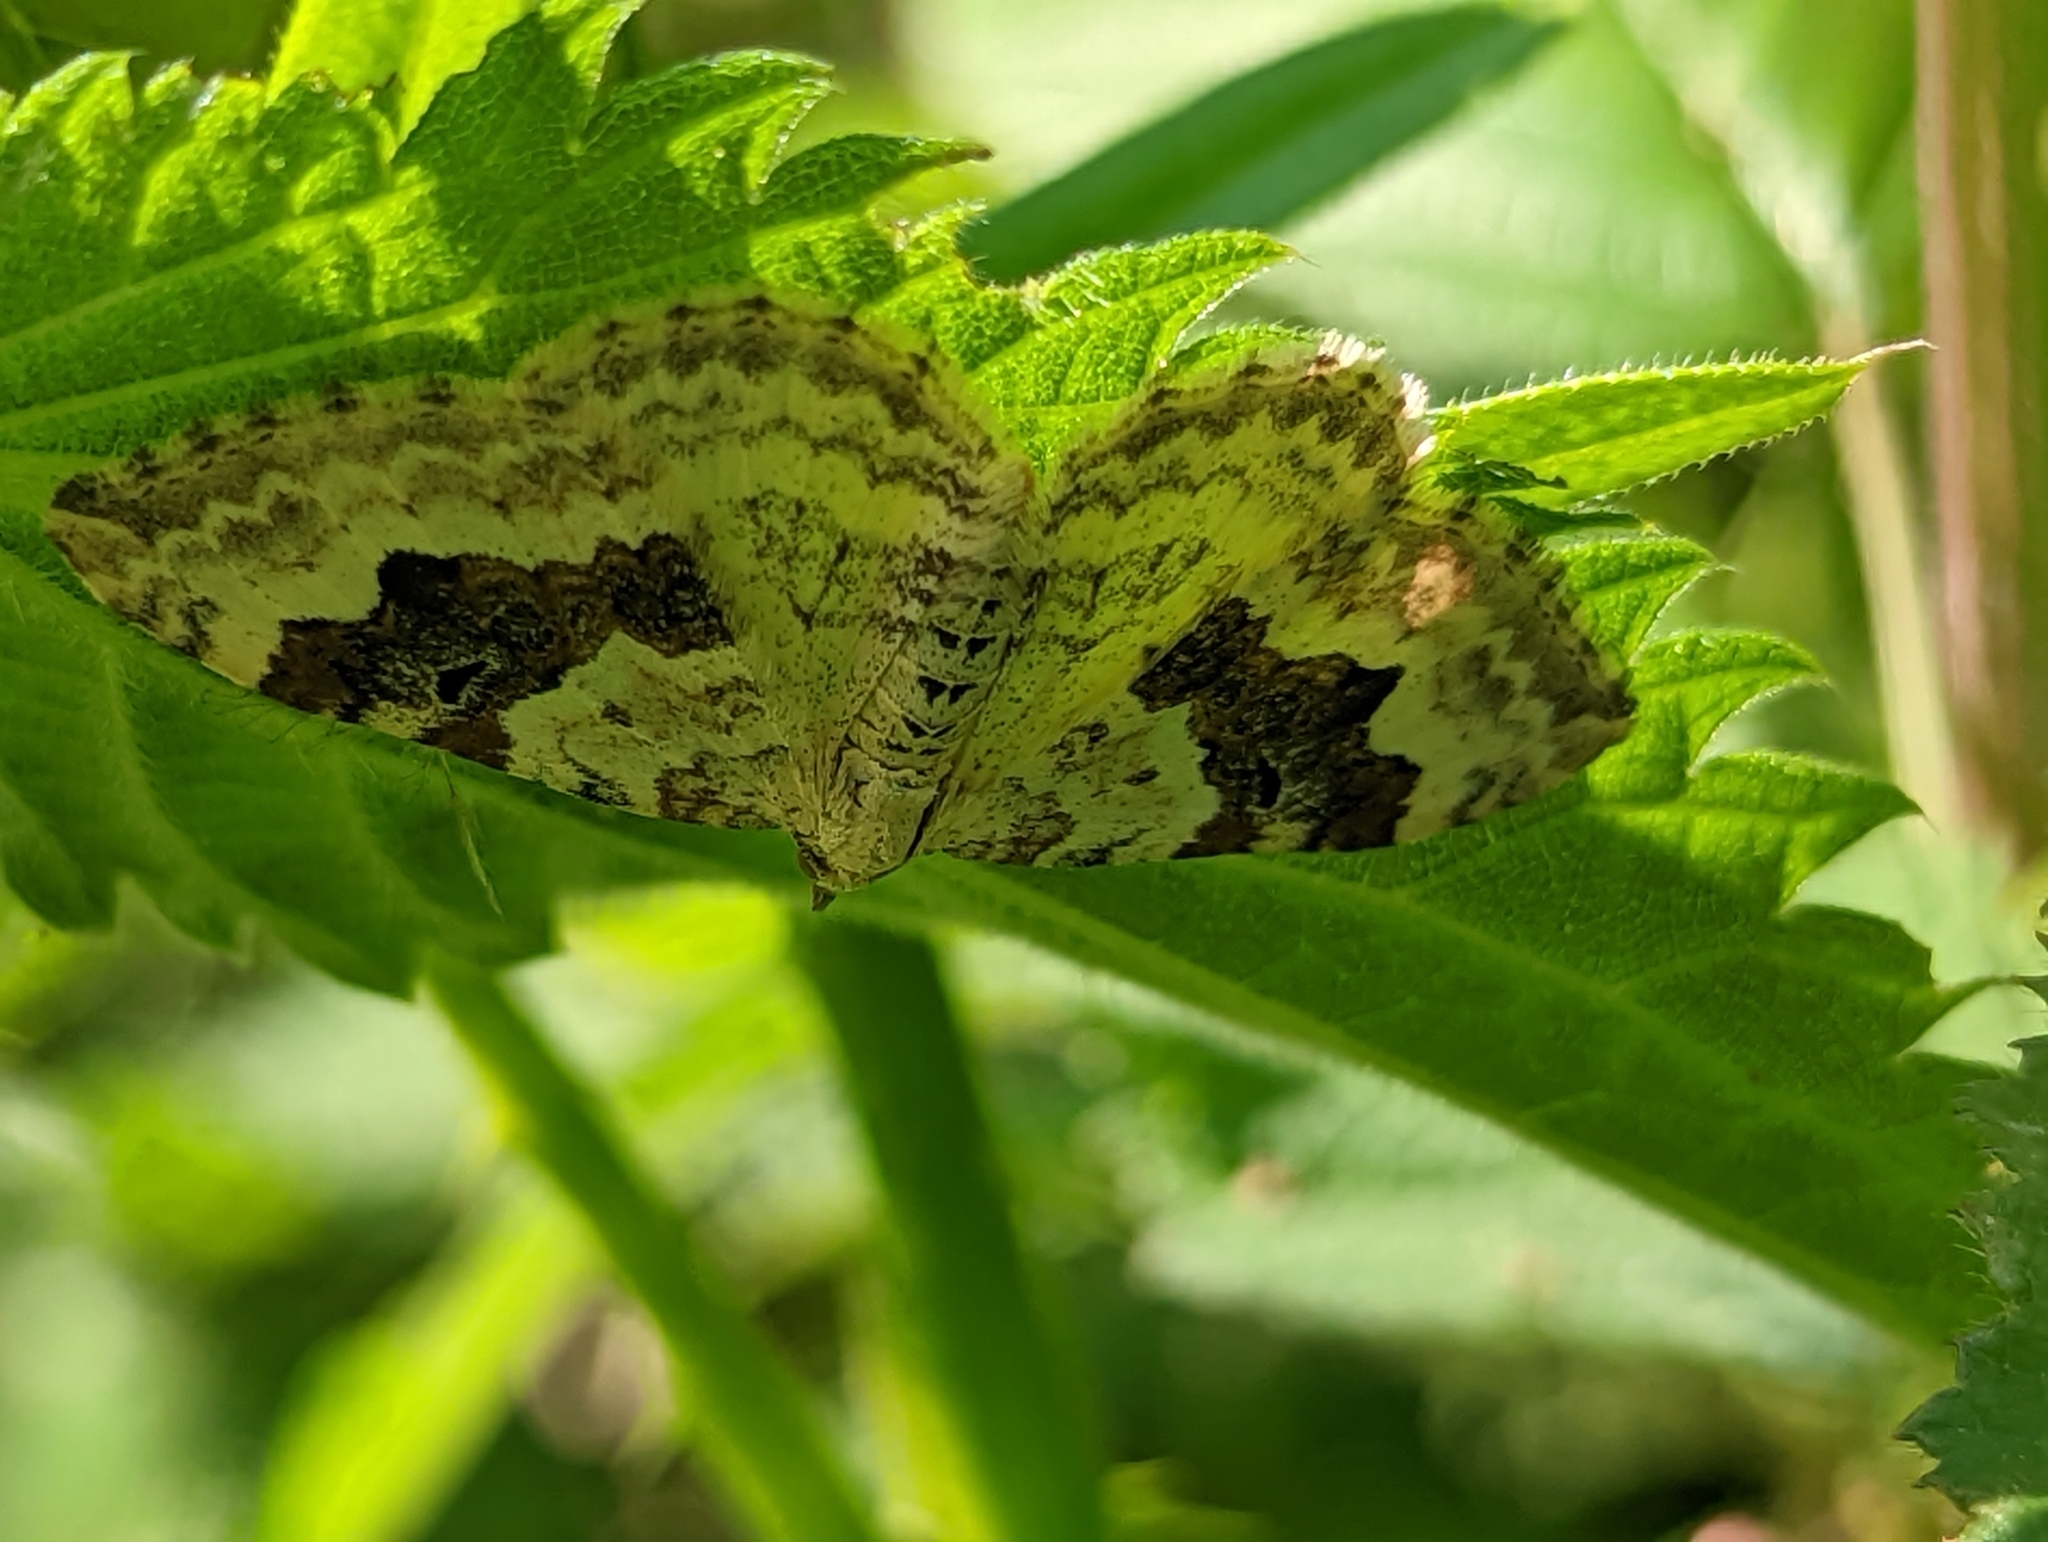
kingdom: Animalia
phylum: Arthropoda
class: Insecta
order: Lepidoptera
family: Geometridae
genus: Xanthorhoe
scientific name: Xanthorhoe montanata
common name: Silver-ground carpet
